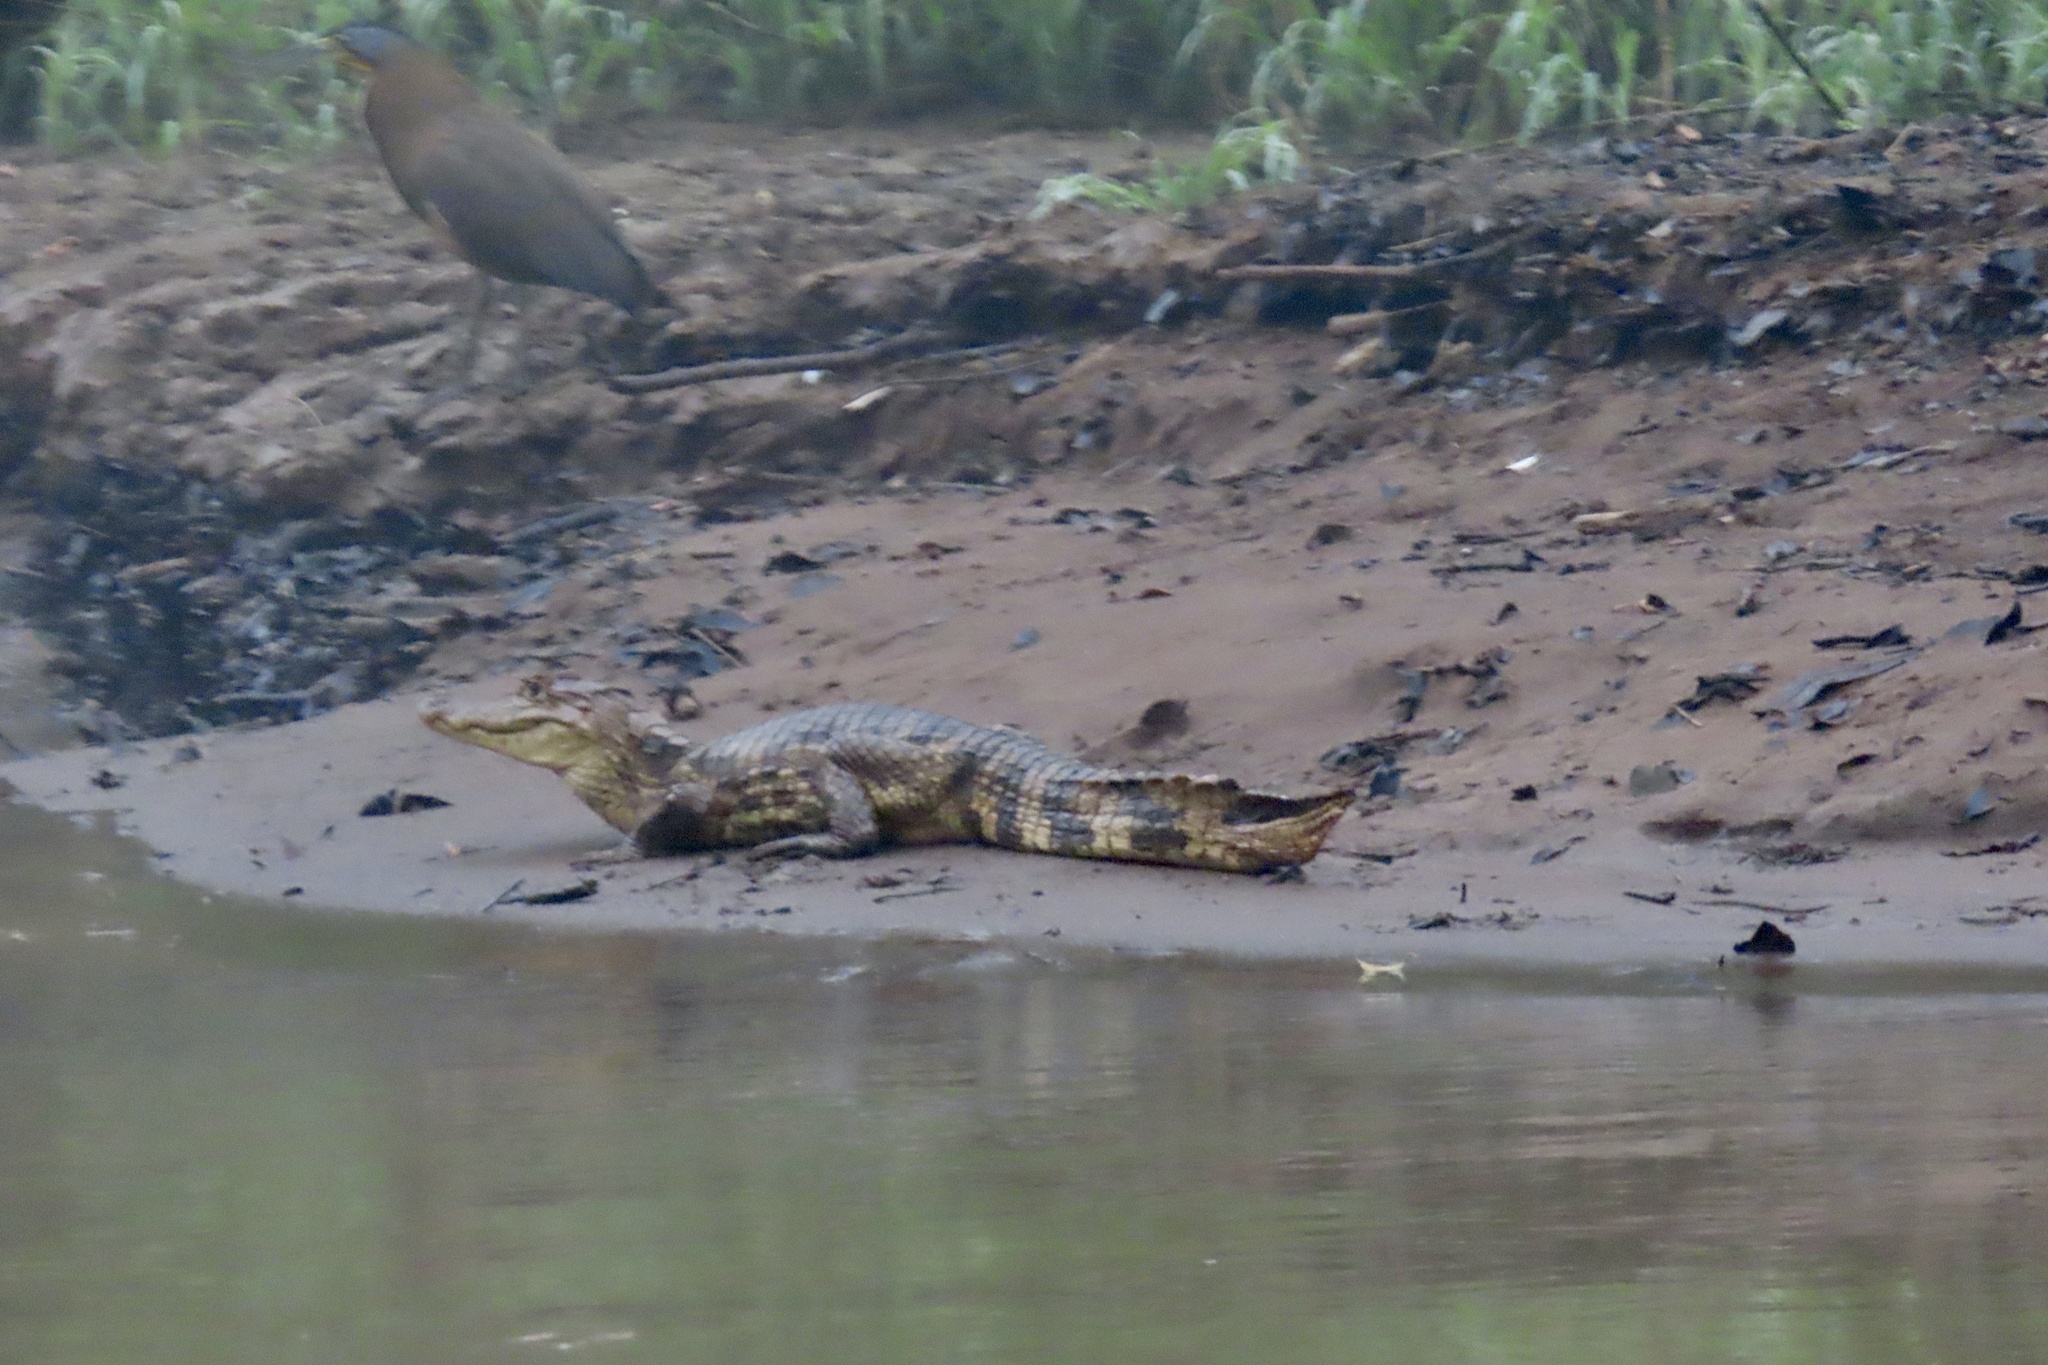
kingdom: Animalia
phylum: Chordata
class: Crocodylia
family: Alligatoridae
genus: Caiman
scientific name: Caiman crocodilus
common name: Common caiman
